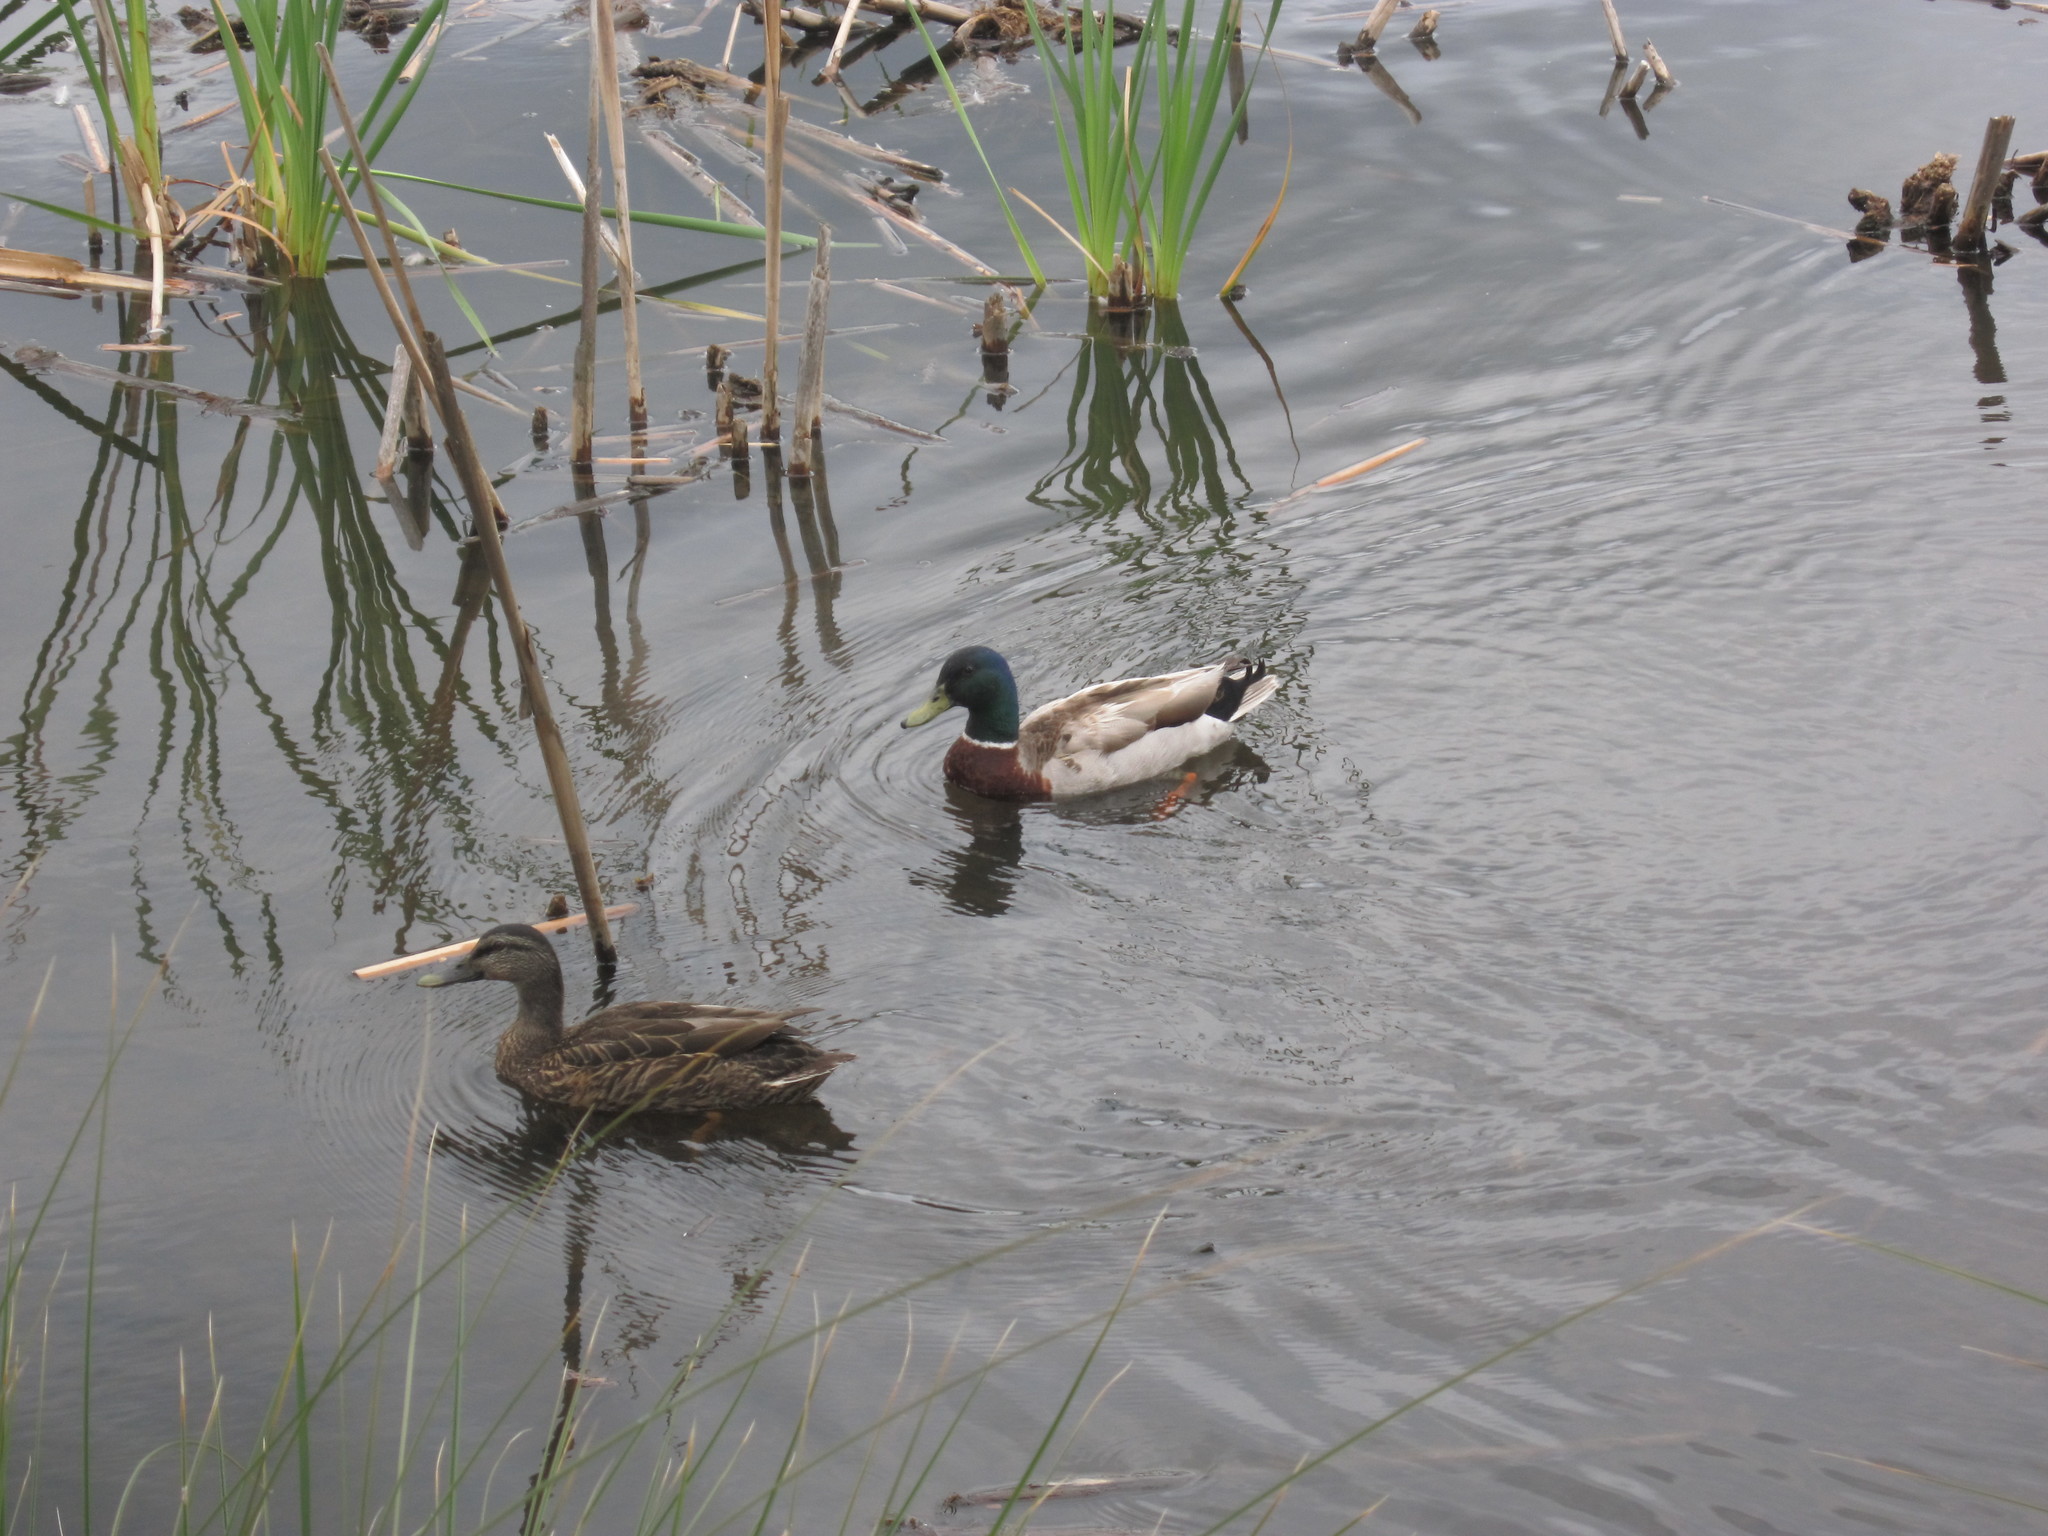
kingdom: Animalia
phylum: Chordata
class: Aves
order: Anseriformes
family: Anatidae
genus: Anas
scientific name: Anas platyrhynchos
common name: Mallard
